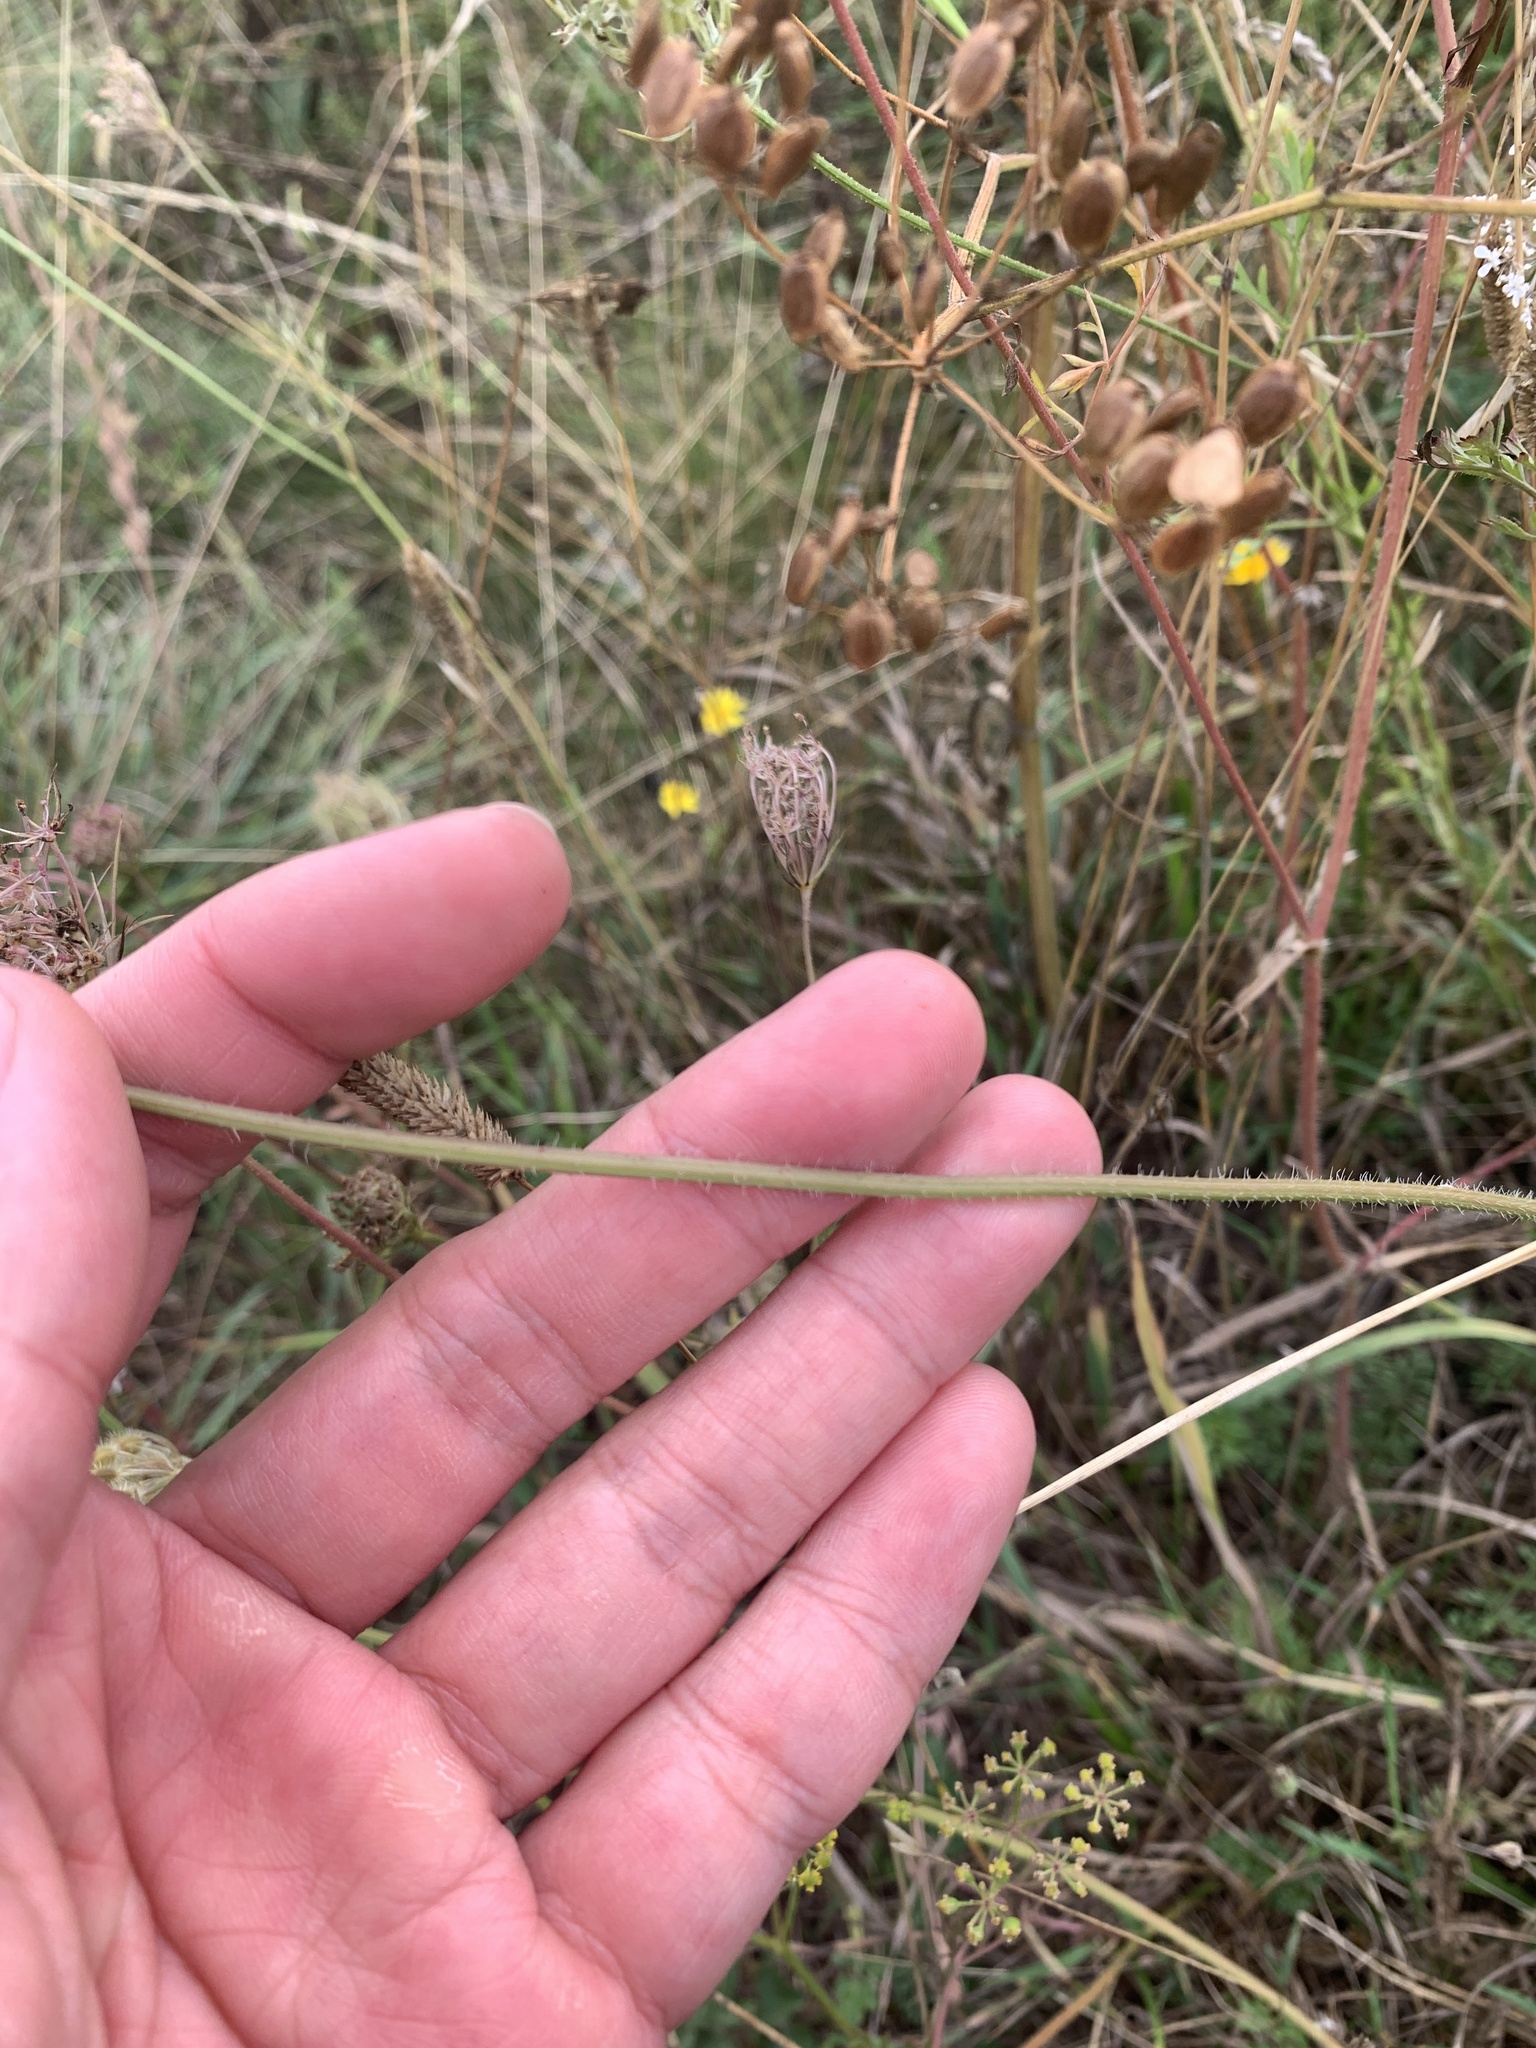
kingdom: Plantae
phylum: Tracheophyta
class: Magnoliopsida
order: Apiales
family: Apiaceae
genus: Daucus
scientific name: Daucus carota
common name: Wild carrot
